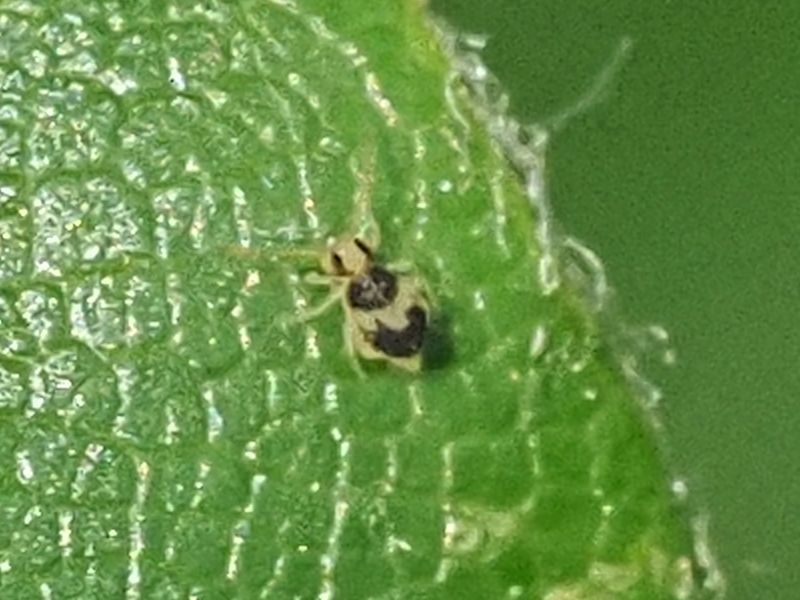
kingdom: Animalia
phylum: Arthropoda
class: Collembola
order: Symphypleona
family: Bourletiellidae
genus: Deuterosminthurus
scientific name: Deuterosminthurus bicinctus
